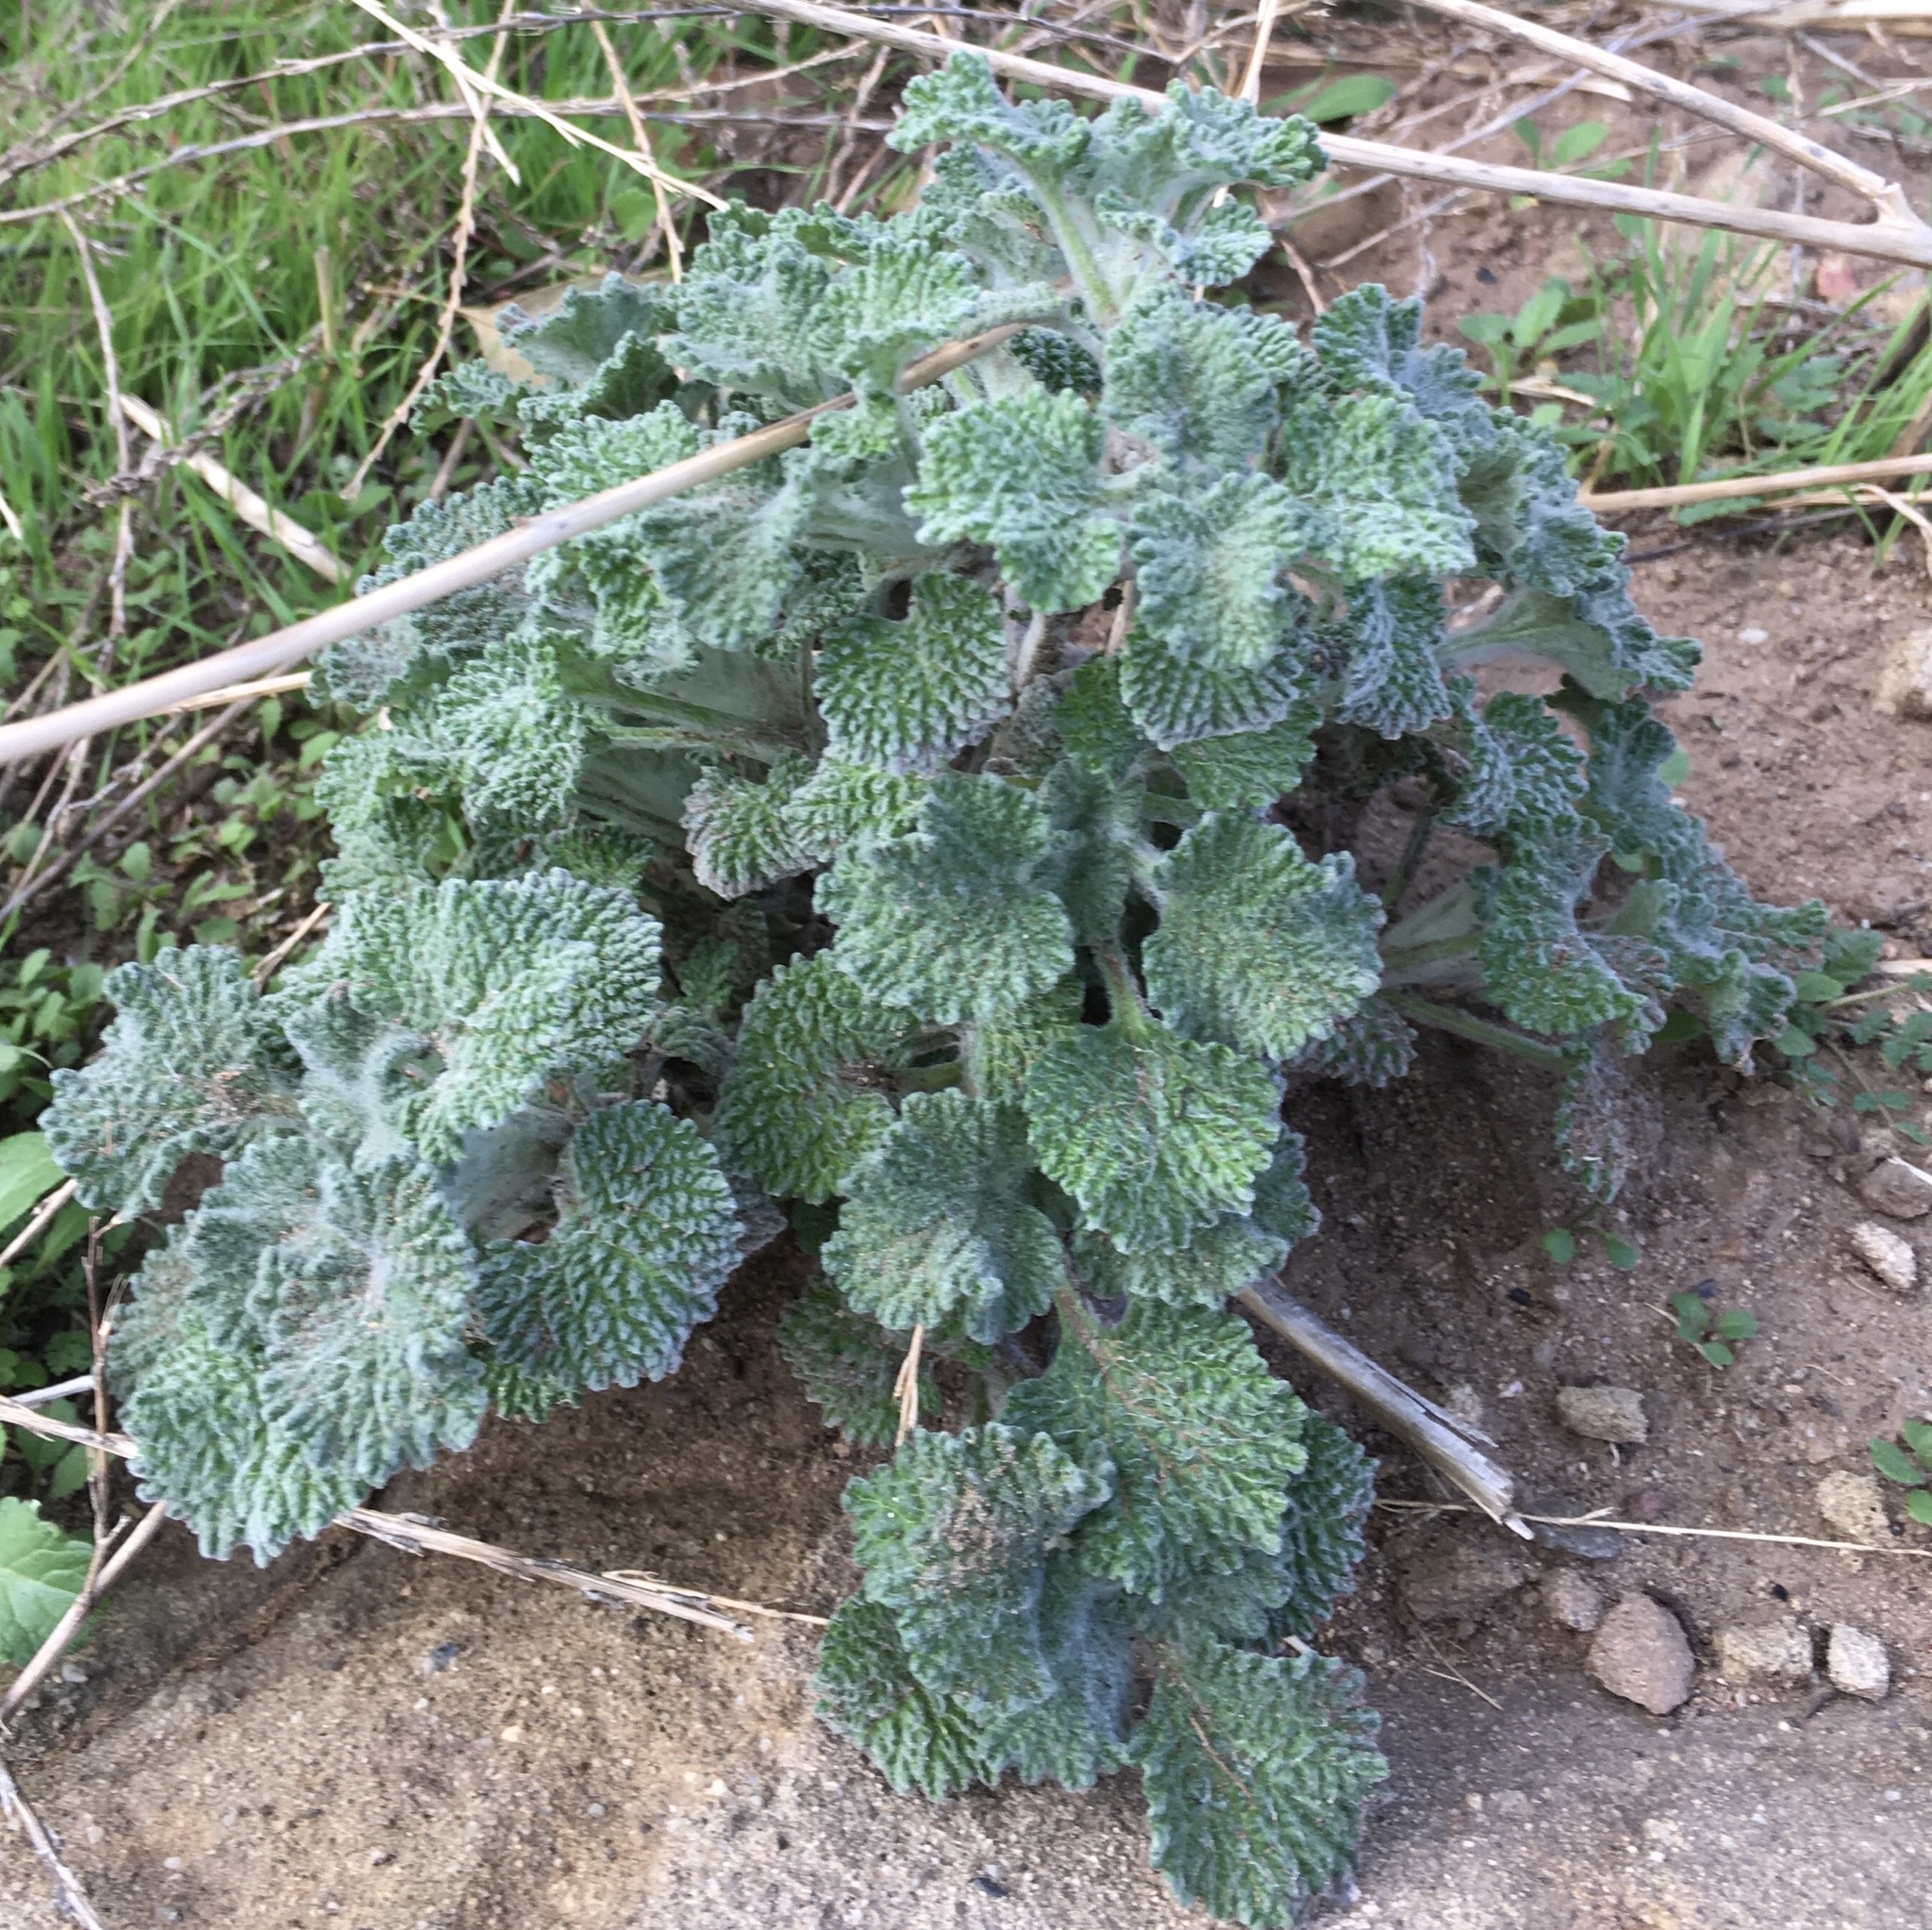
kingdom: Plantae
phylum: Tracheophyta
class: Magnoliopsida
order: Lamiales
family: Lamiaceae
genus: Marrubium
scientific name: Marrubium vulgare
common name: Horehound
